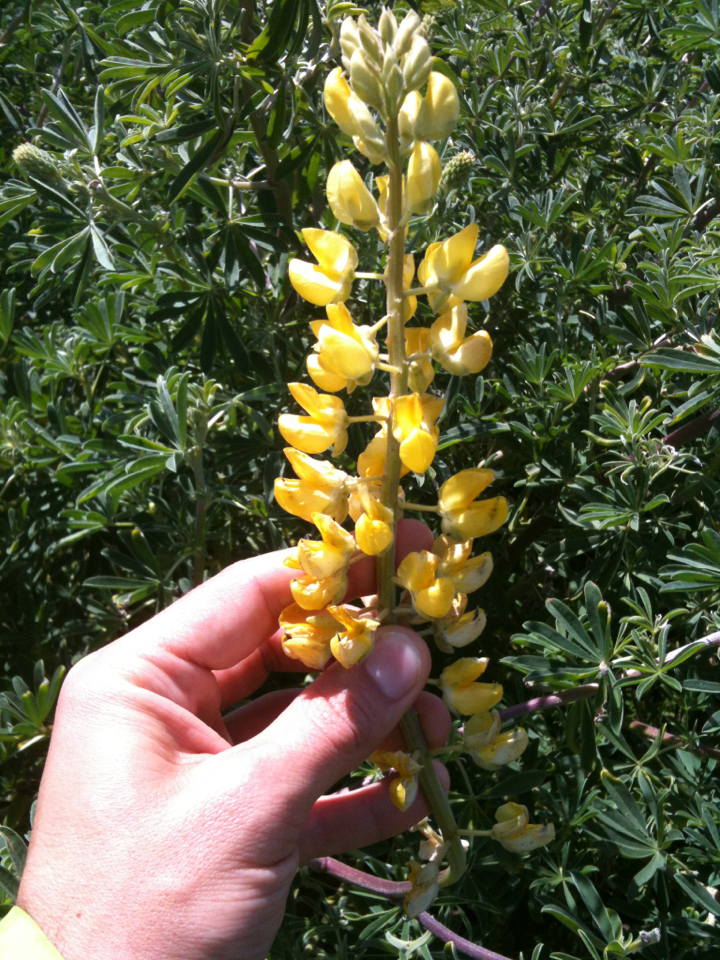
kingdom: Plantae
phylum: Tracheophyta
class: Magnoliopsida
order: Fabales
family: Fabaceae
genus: Lupinus
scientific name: Lupinus arboreus
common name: Yellow bush lupine
